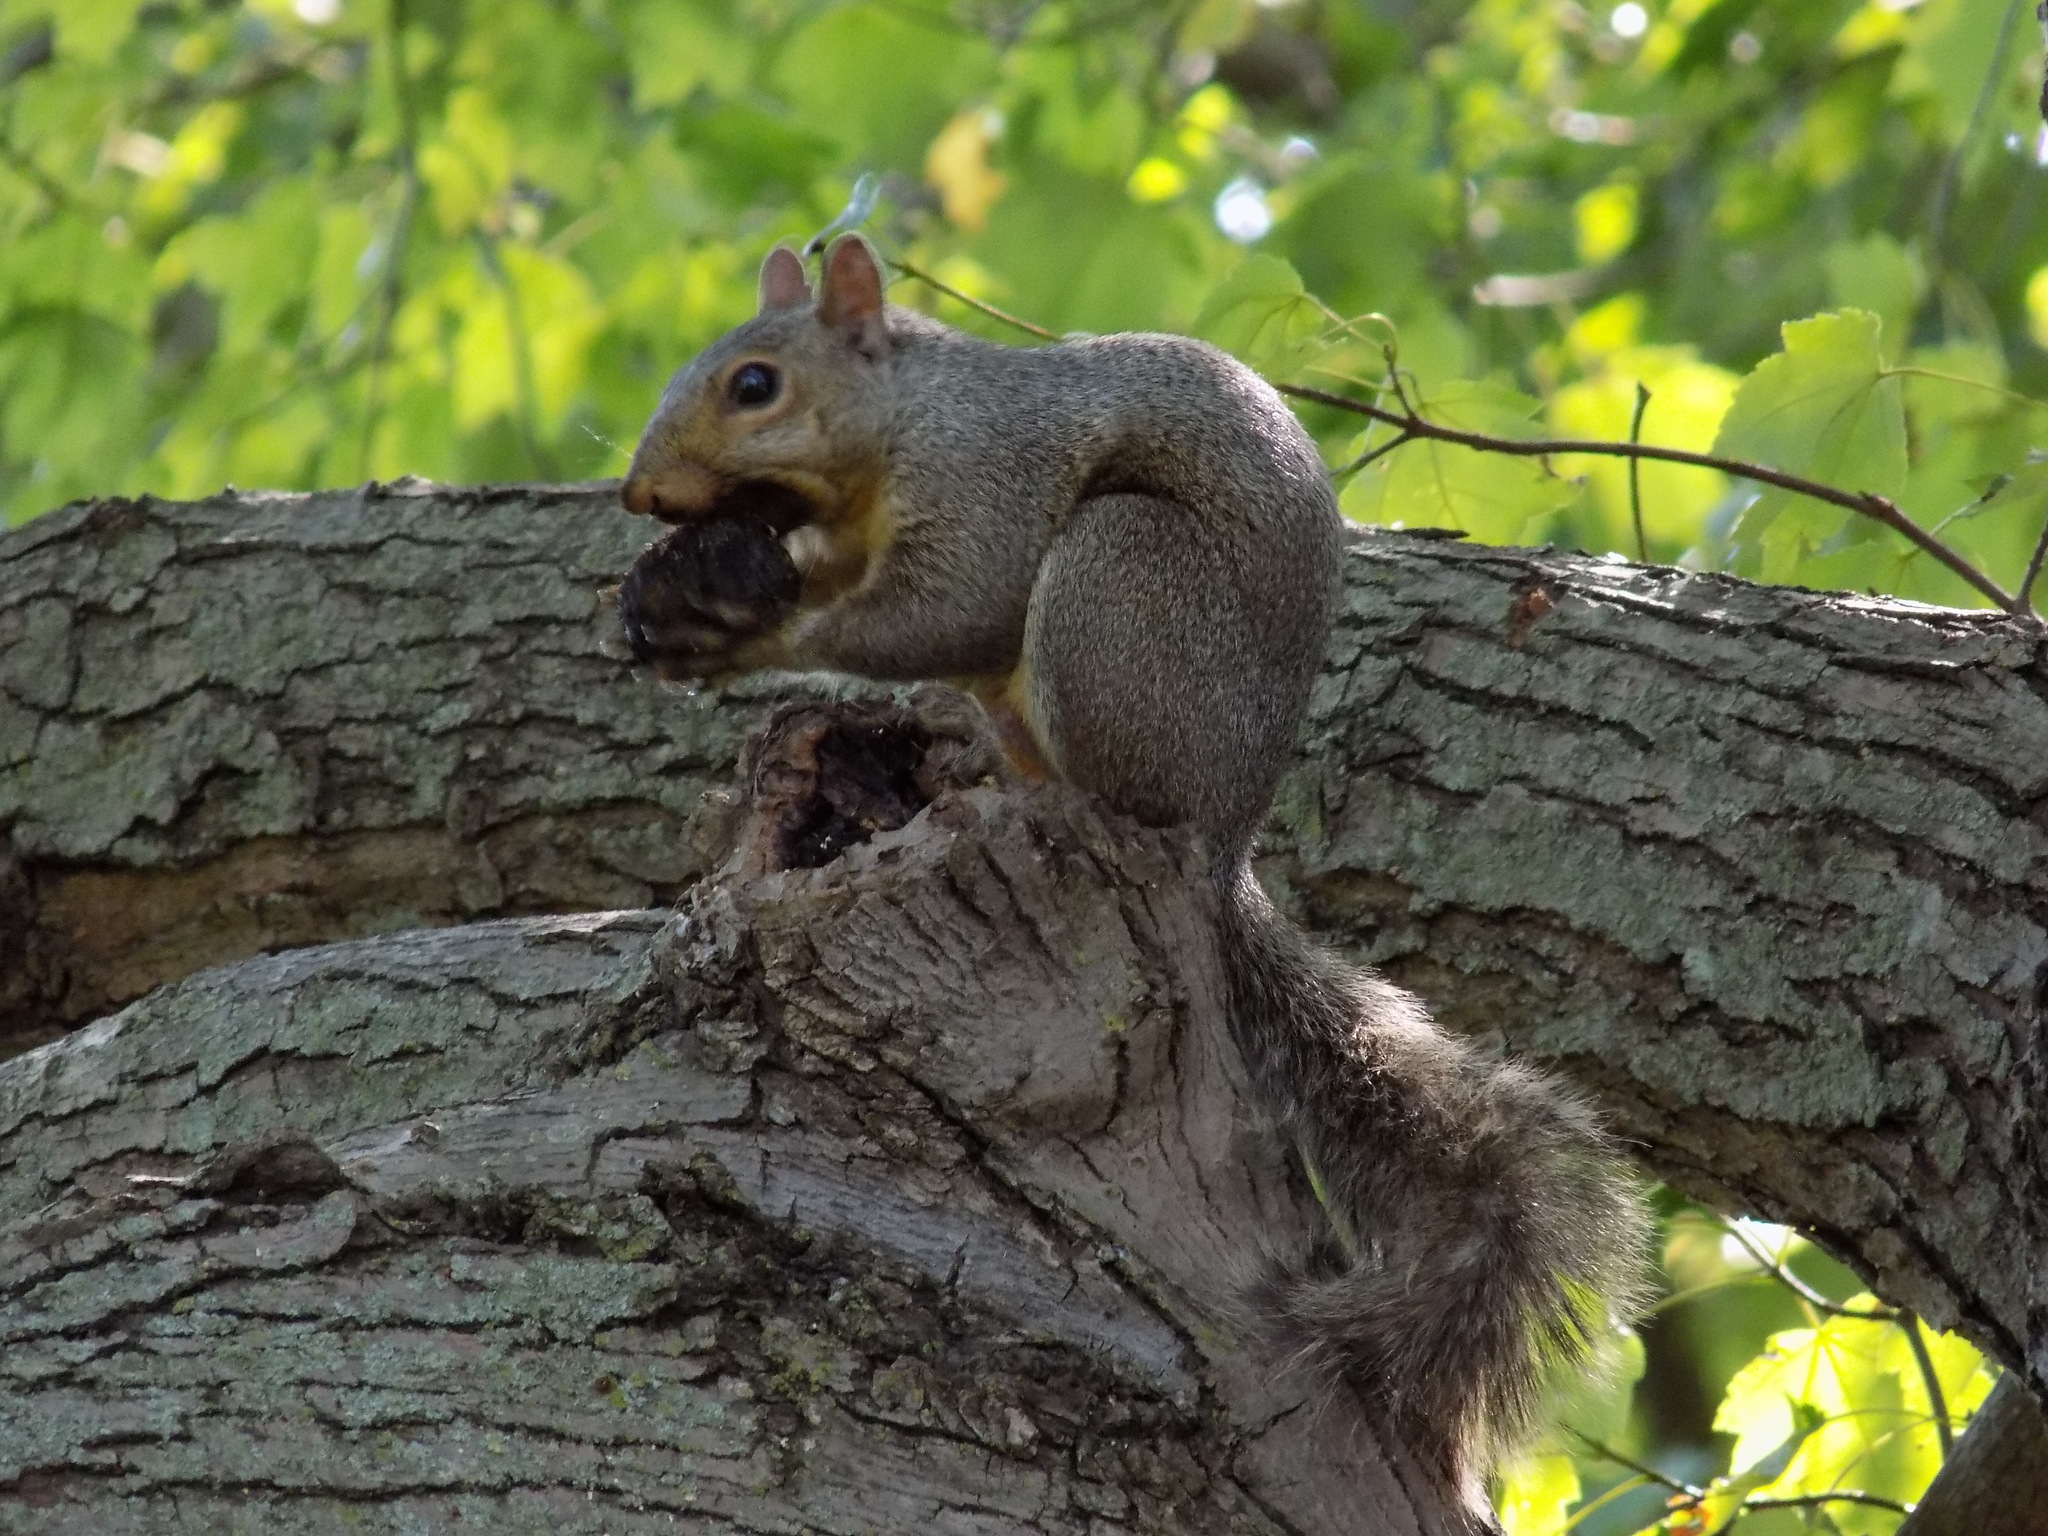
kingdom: Animalia
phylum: Chordata
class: Mammalia
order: Rodentia
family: Sciuridae
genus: Sciurus
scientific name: Sciurus carolinensis
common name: Eastern gray squirrel
